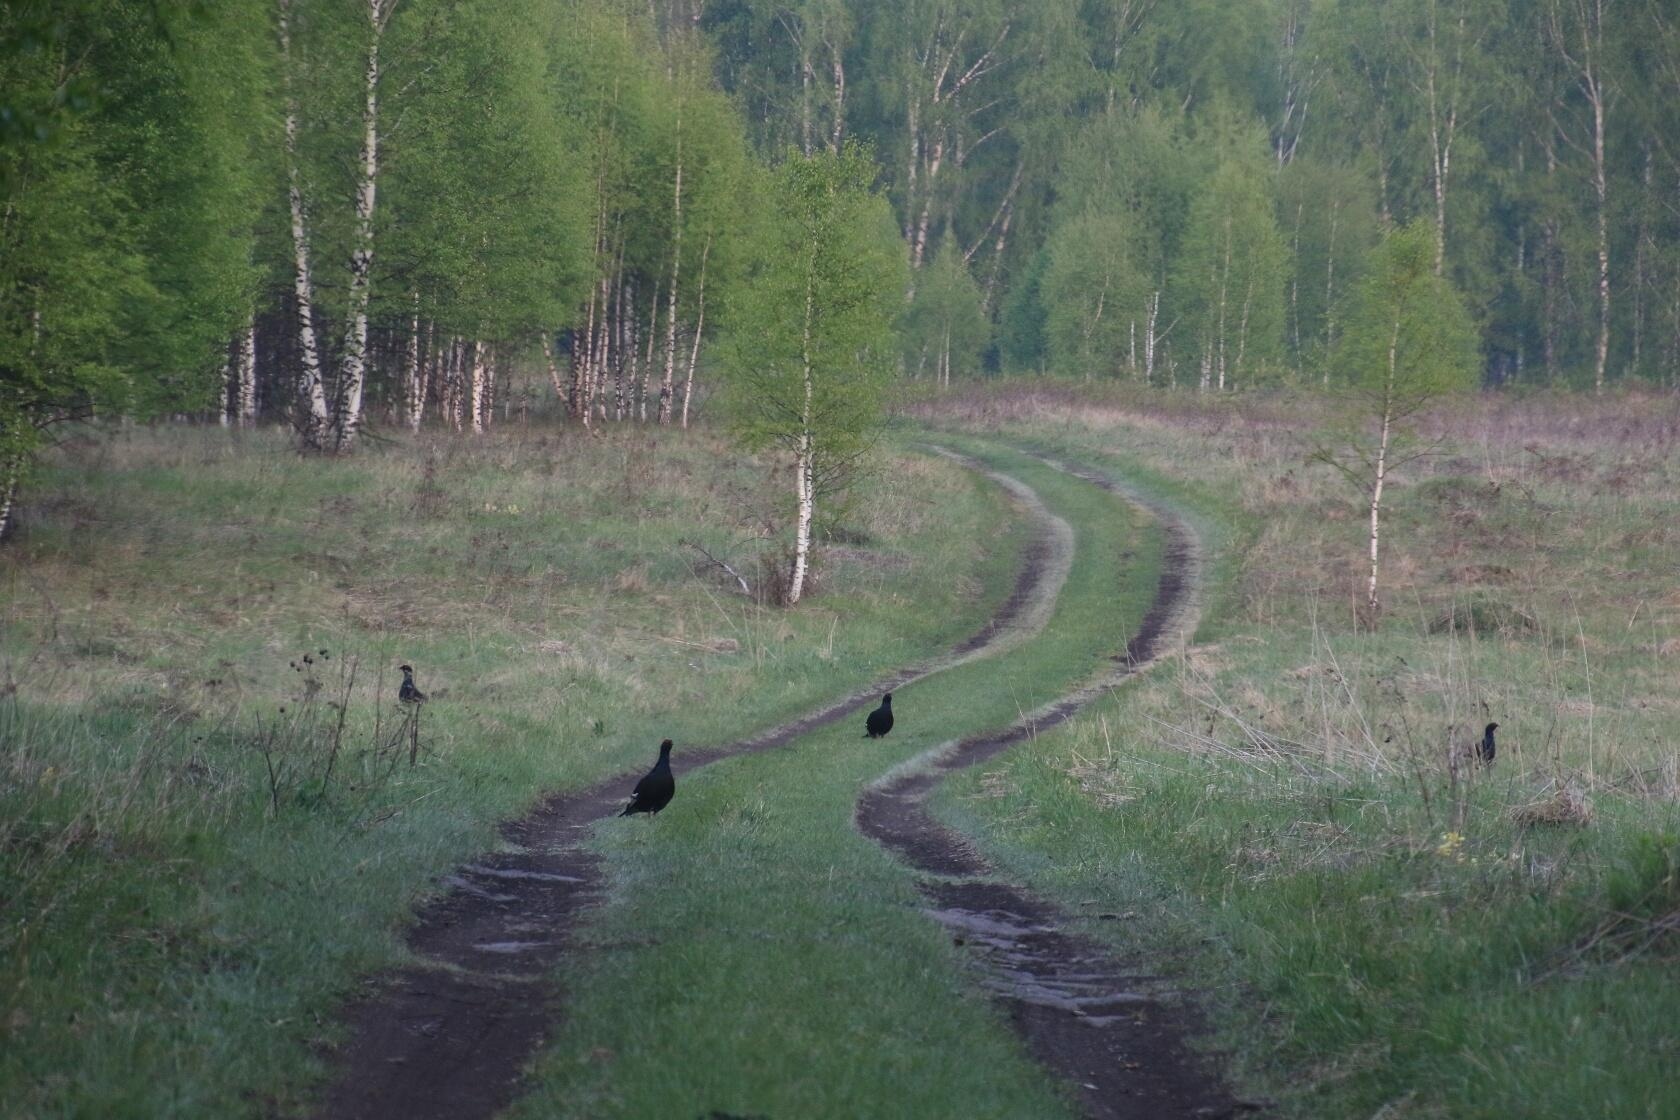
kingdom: Animalia
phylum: Chordata
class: Aves
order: Galliformes
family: Phasianidae
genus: Lyrurus
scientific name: Lyrurus tetrix
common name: Black grouse
